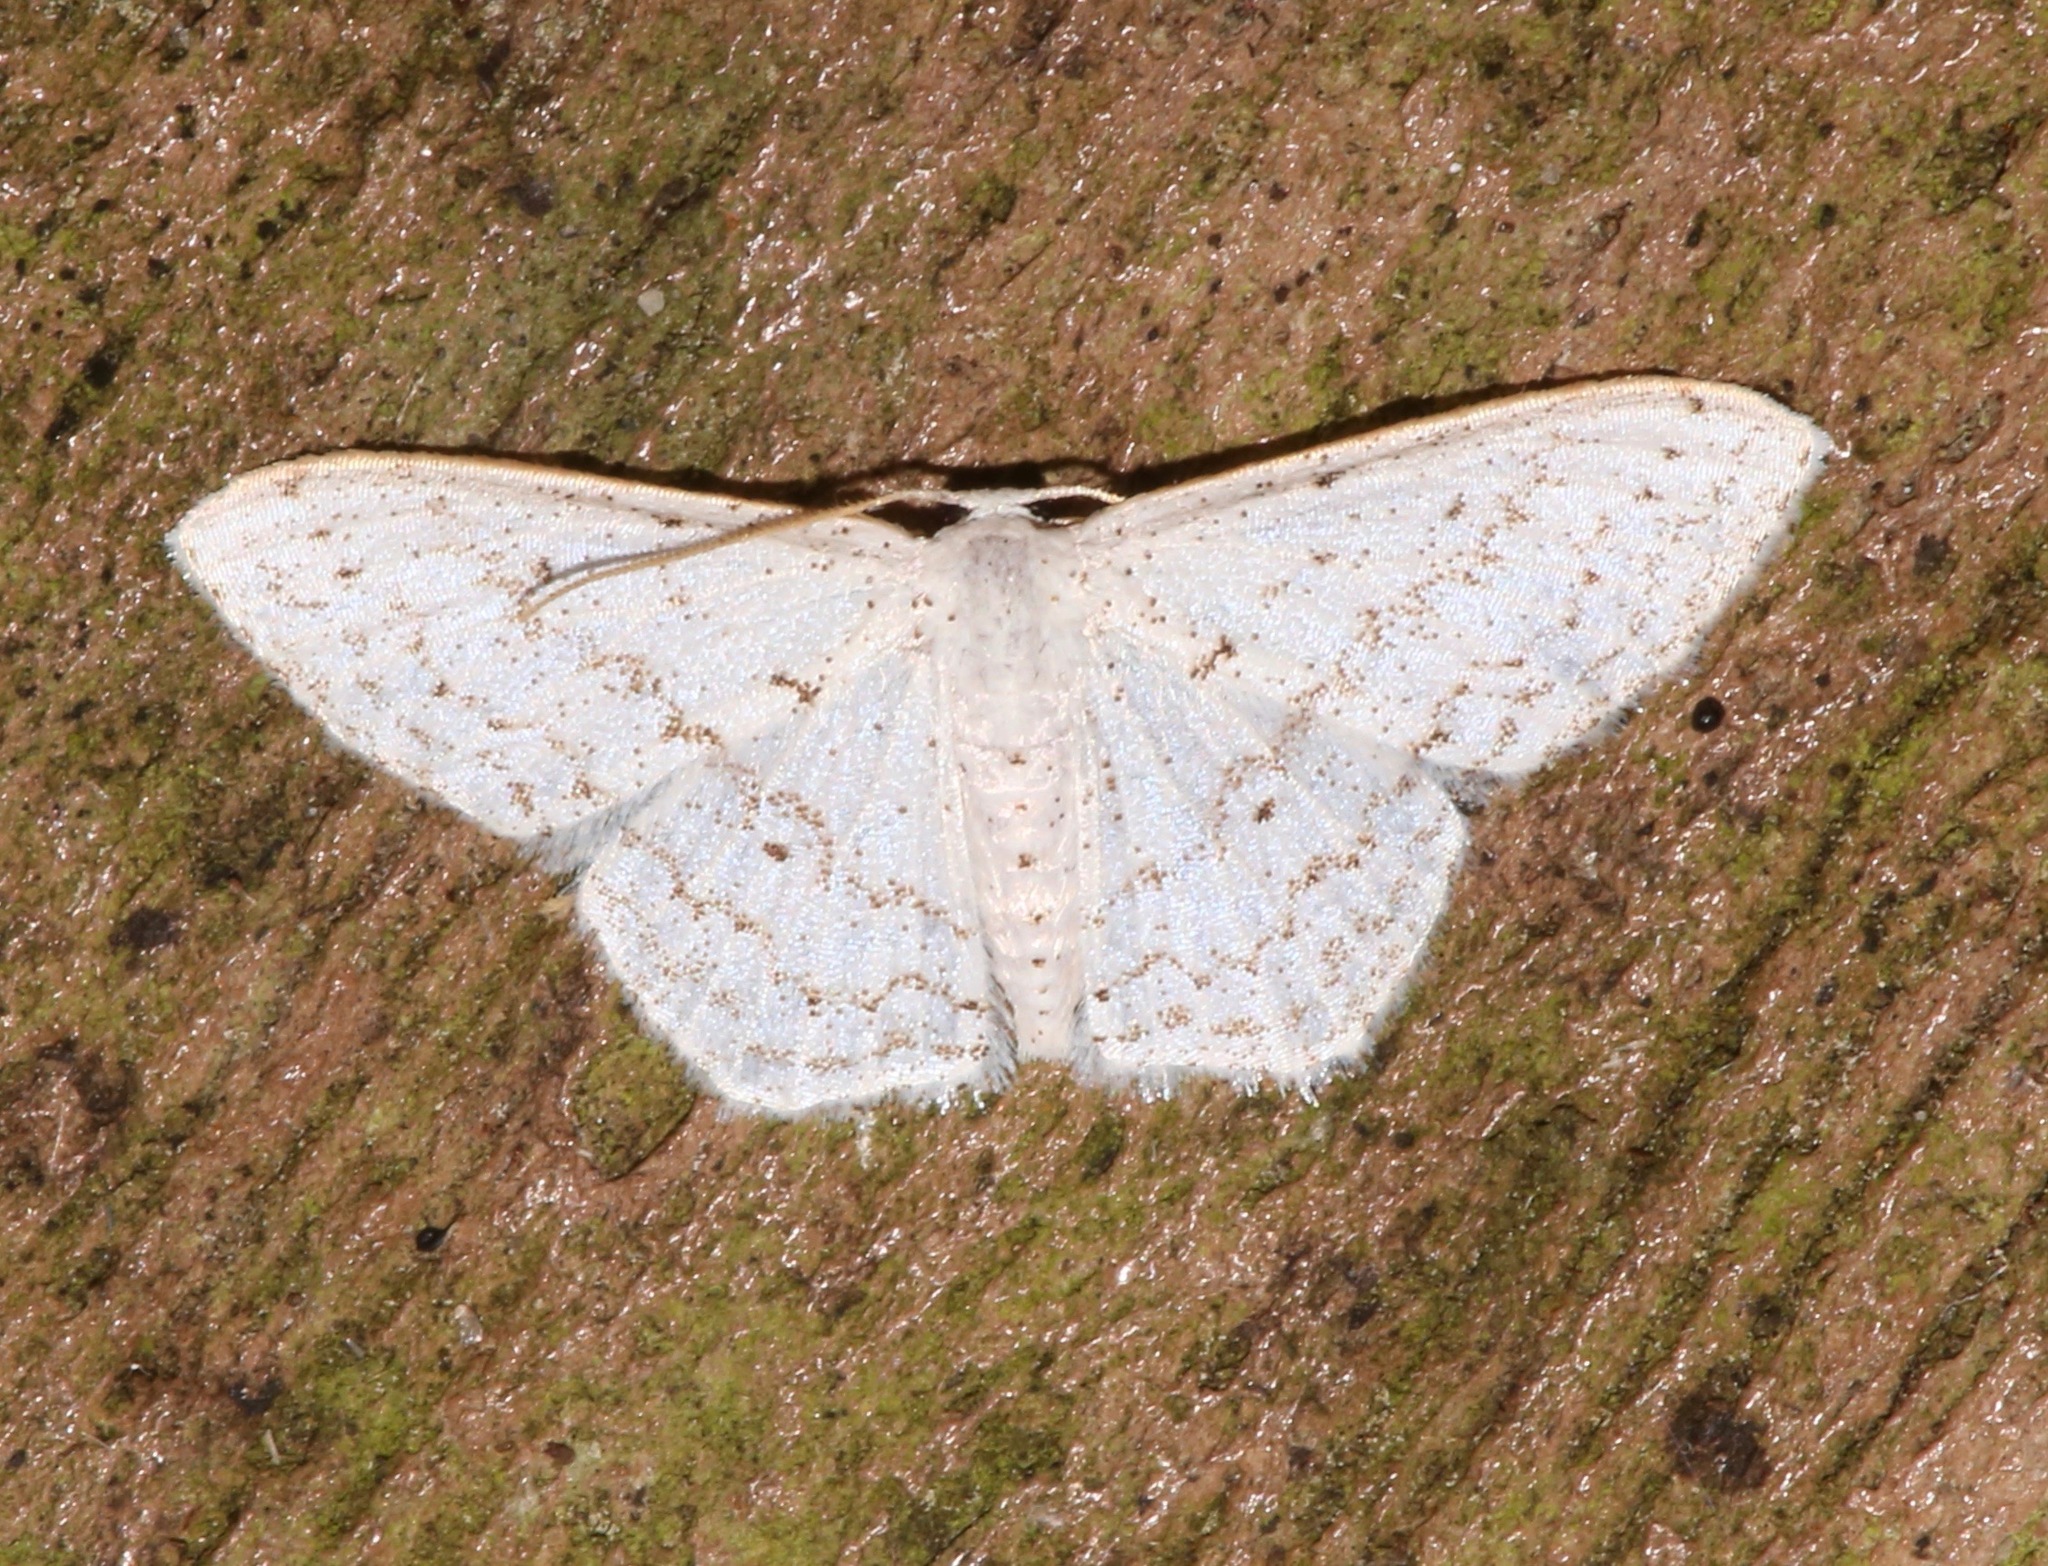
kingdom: Animalia
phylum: Arthropoda
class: Insecta
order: Lepidoptera
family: Geometridae
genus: Idaea
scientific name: Idaea tacturata
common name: Dot-lined wave
